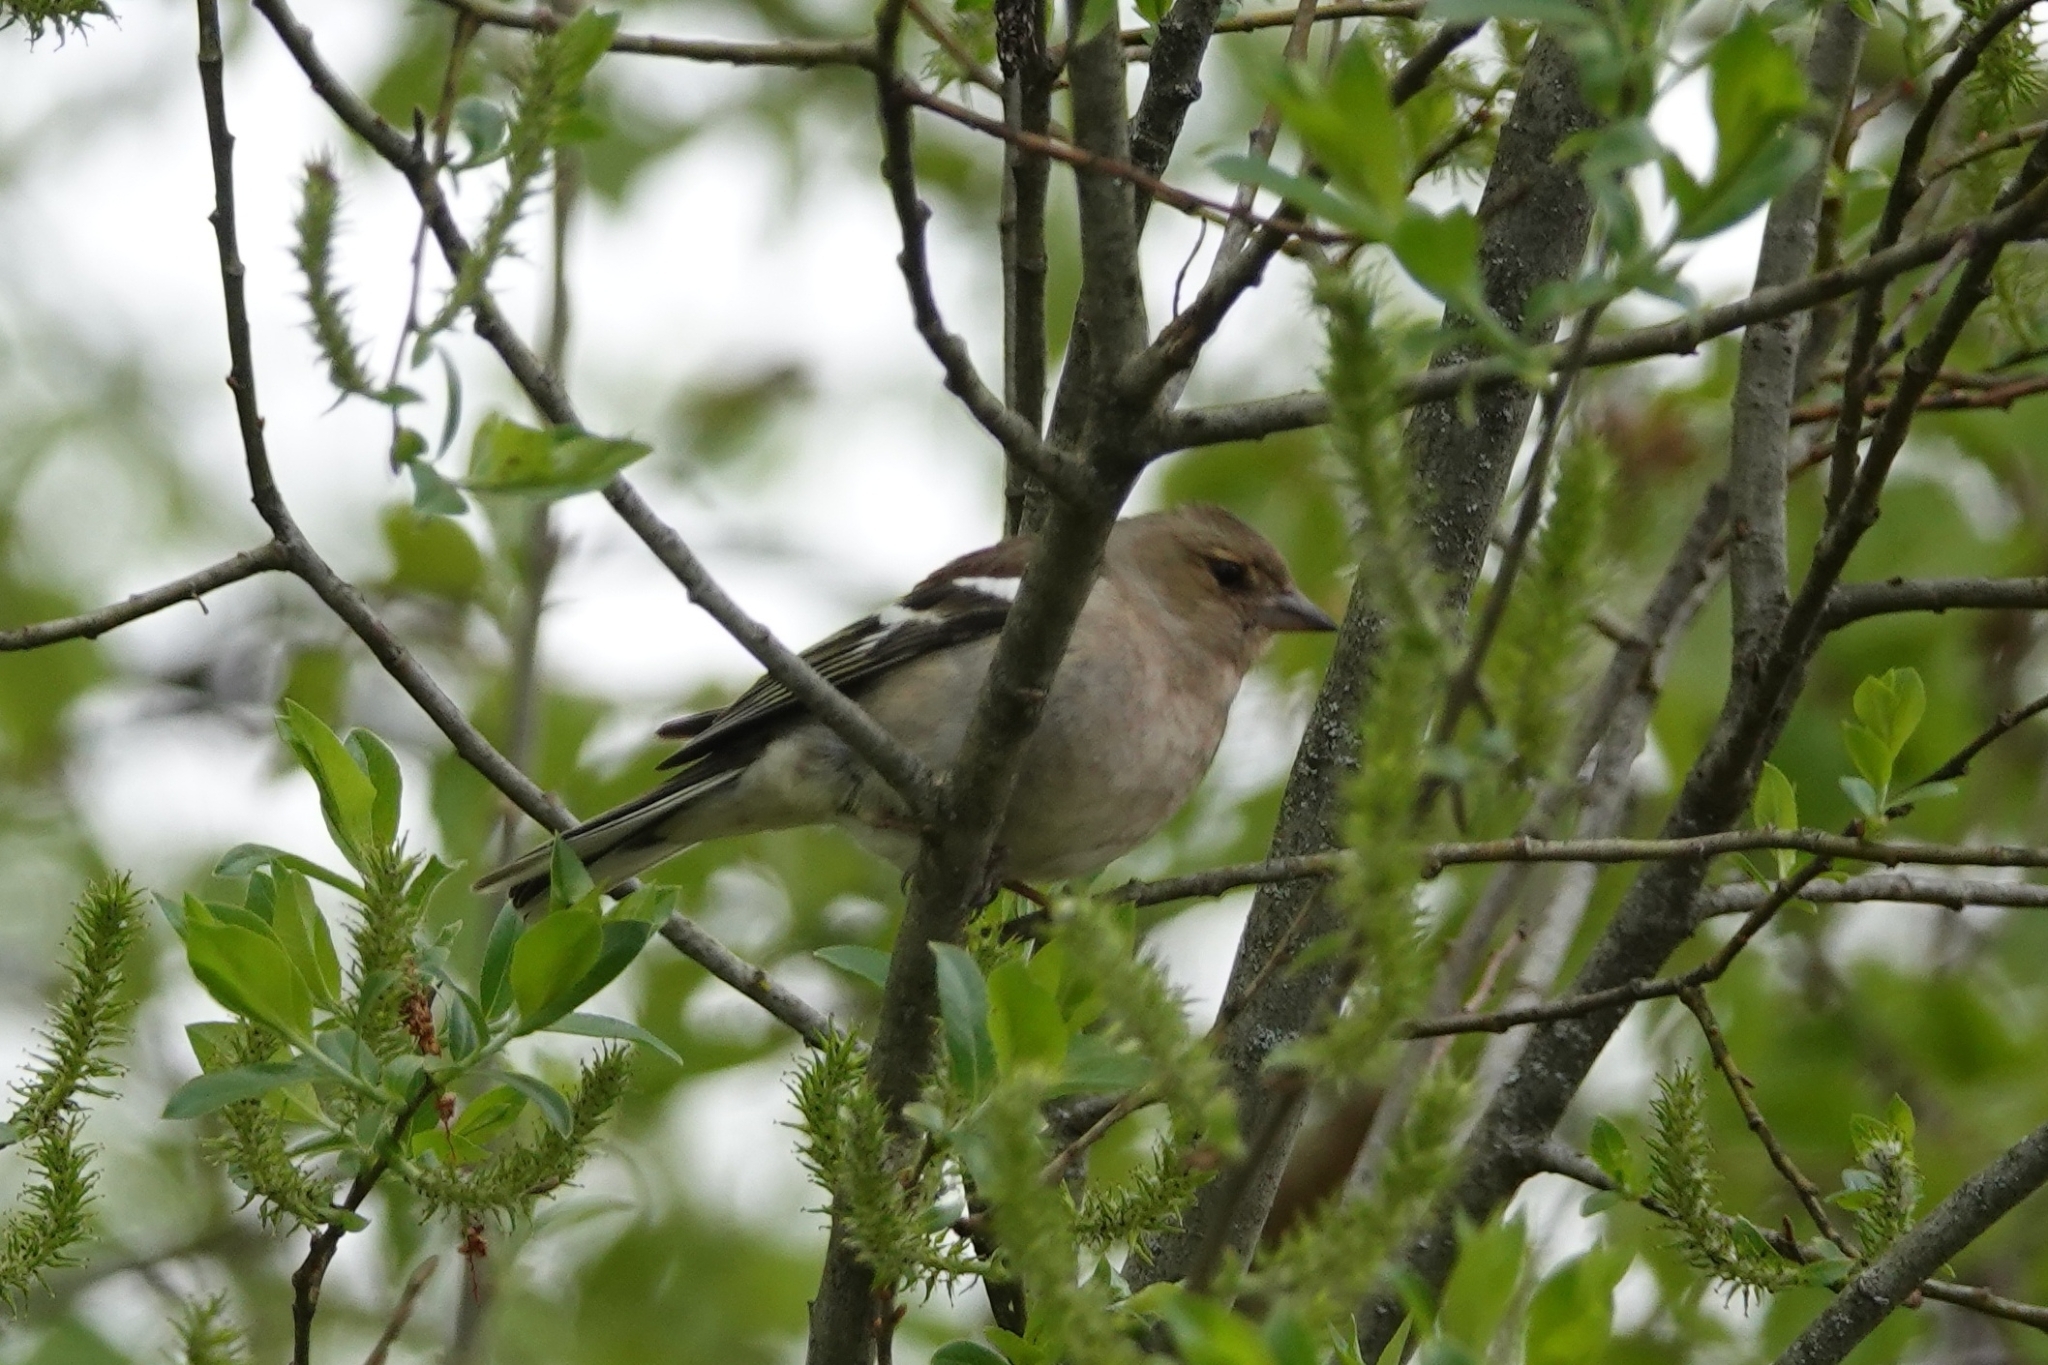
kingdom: Animalia
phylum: Chordata
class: Aves
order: Passeriformes
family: Fringillidae
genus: Fringilla
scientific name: Fringilla coelebs
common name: Common chaffinch
